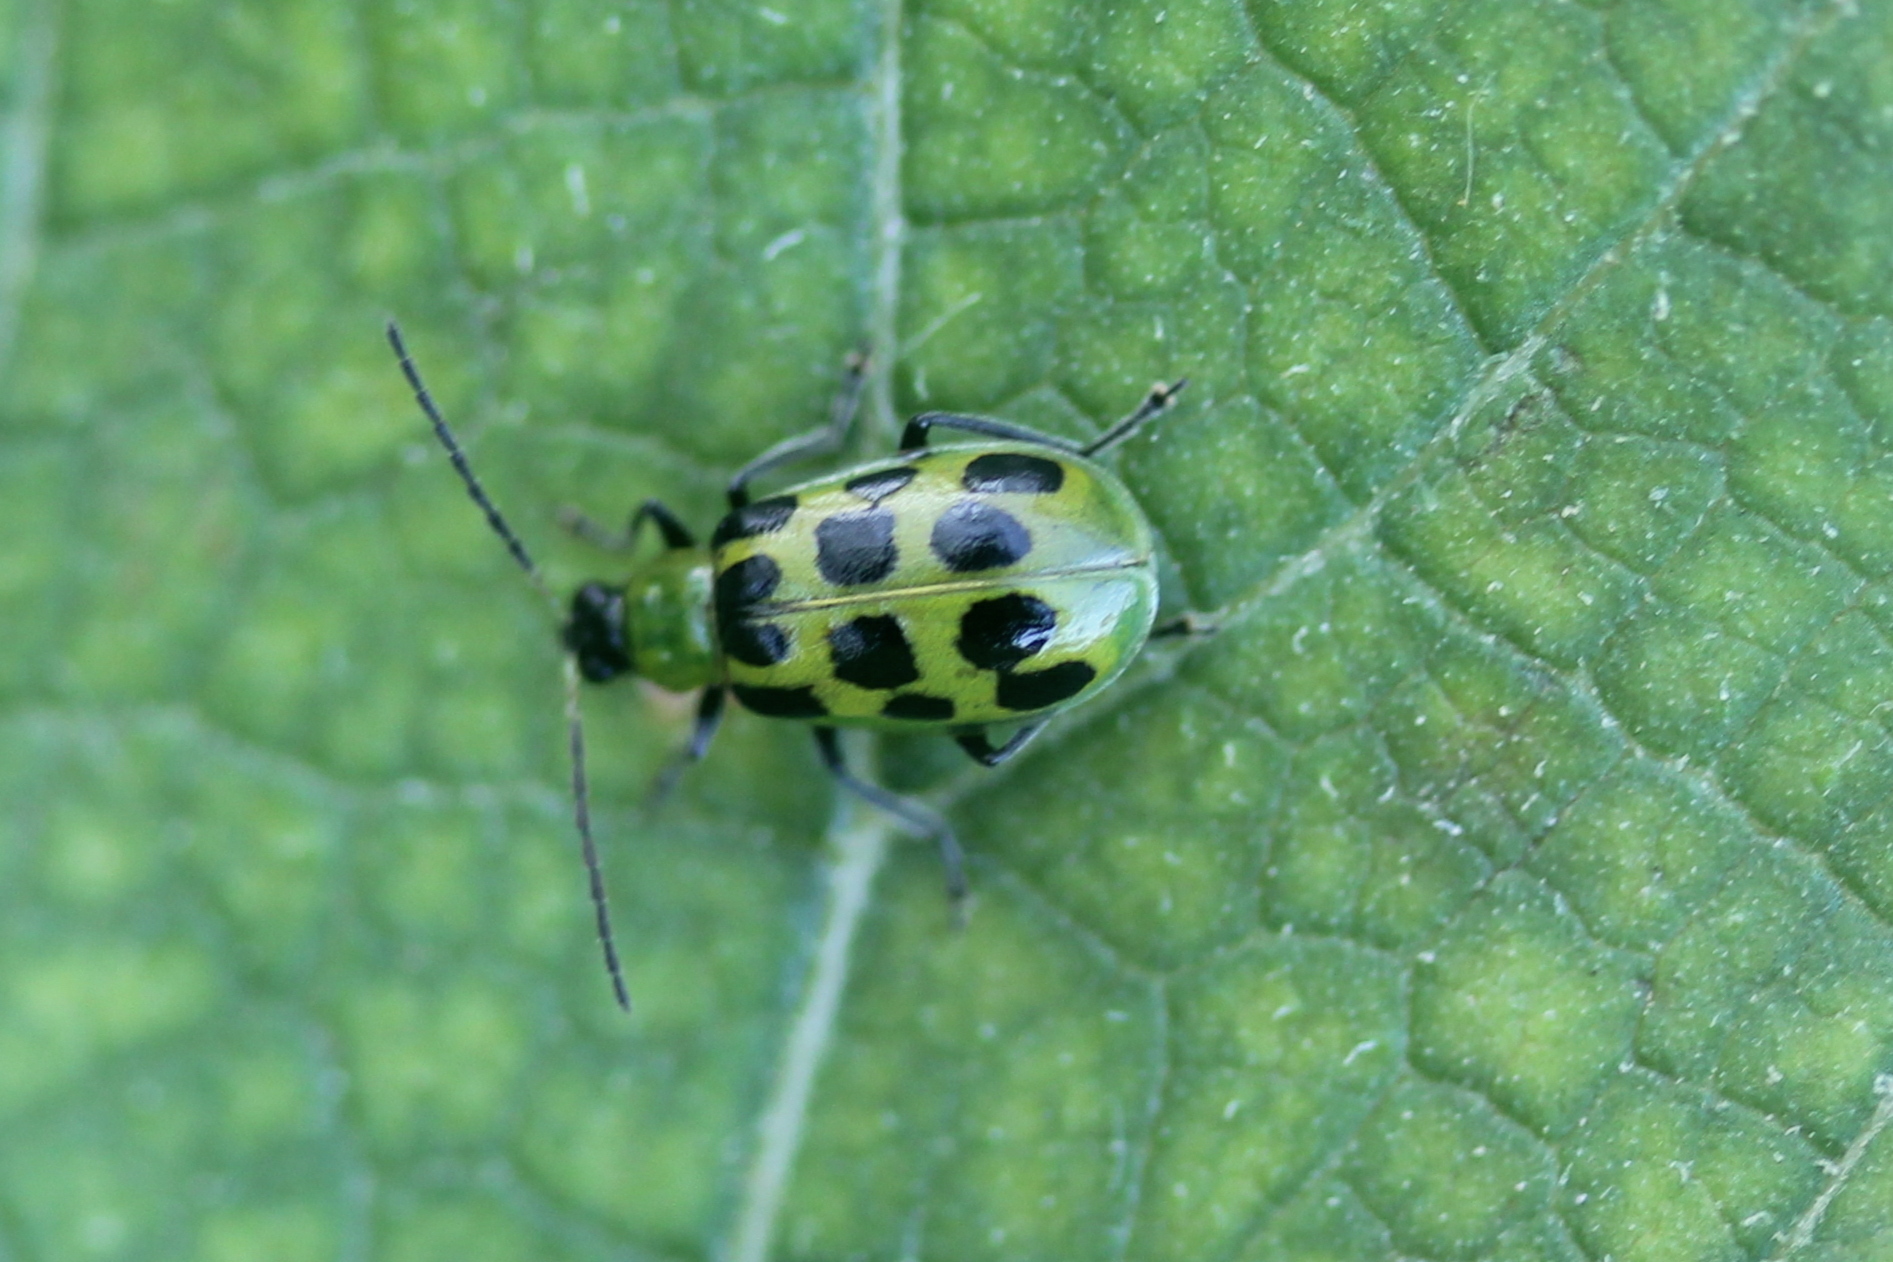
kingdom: Animalia
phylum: Arthropoda
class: Insecta
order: Coleoptera
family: Chrysomelidae
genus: Diabrotica
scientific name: Diabrotica undecimpunctata
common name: Spotted cucumber beetle
